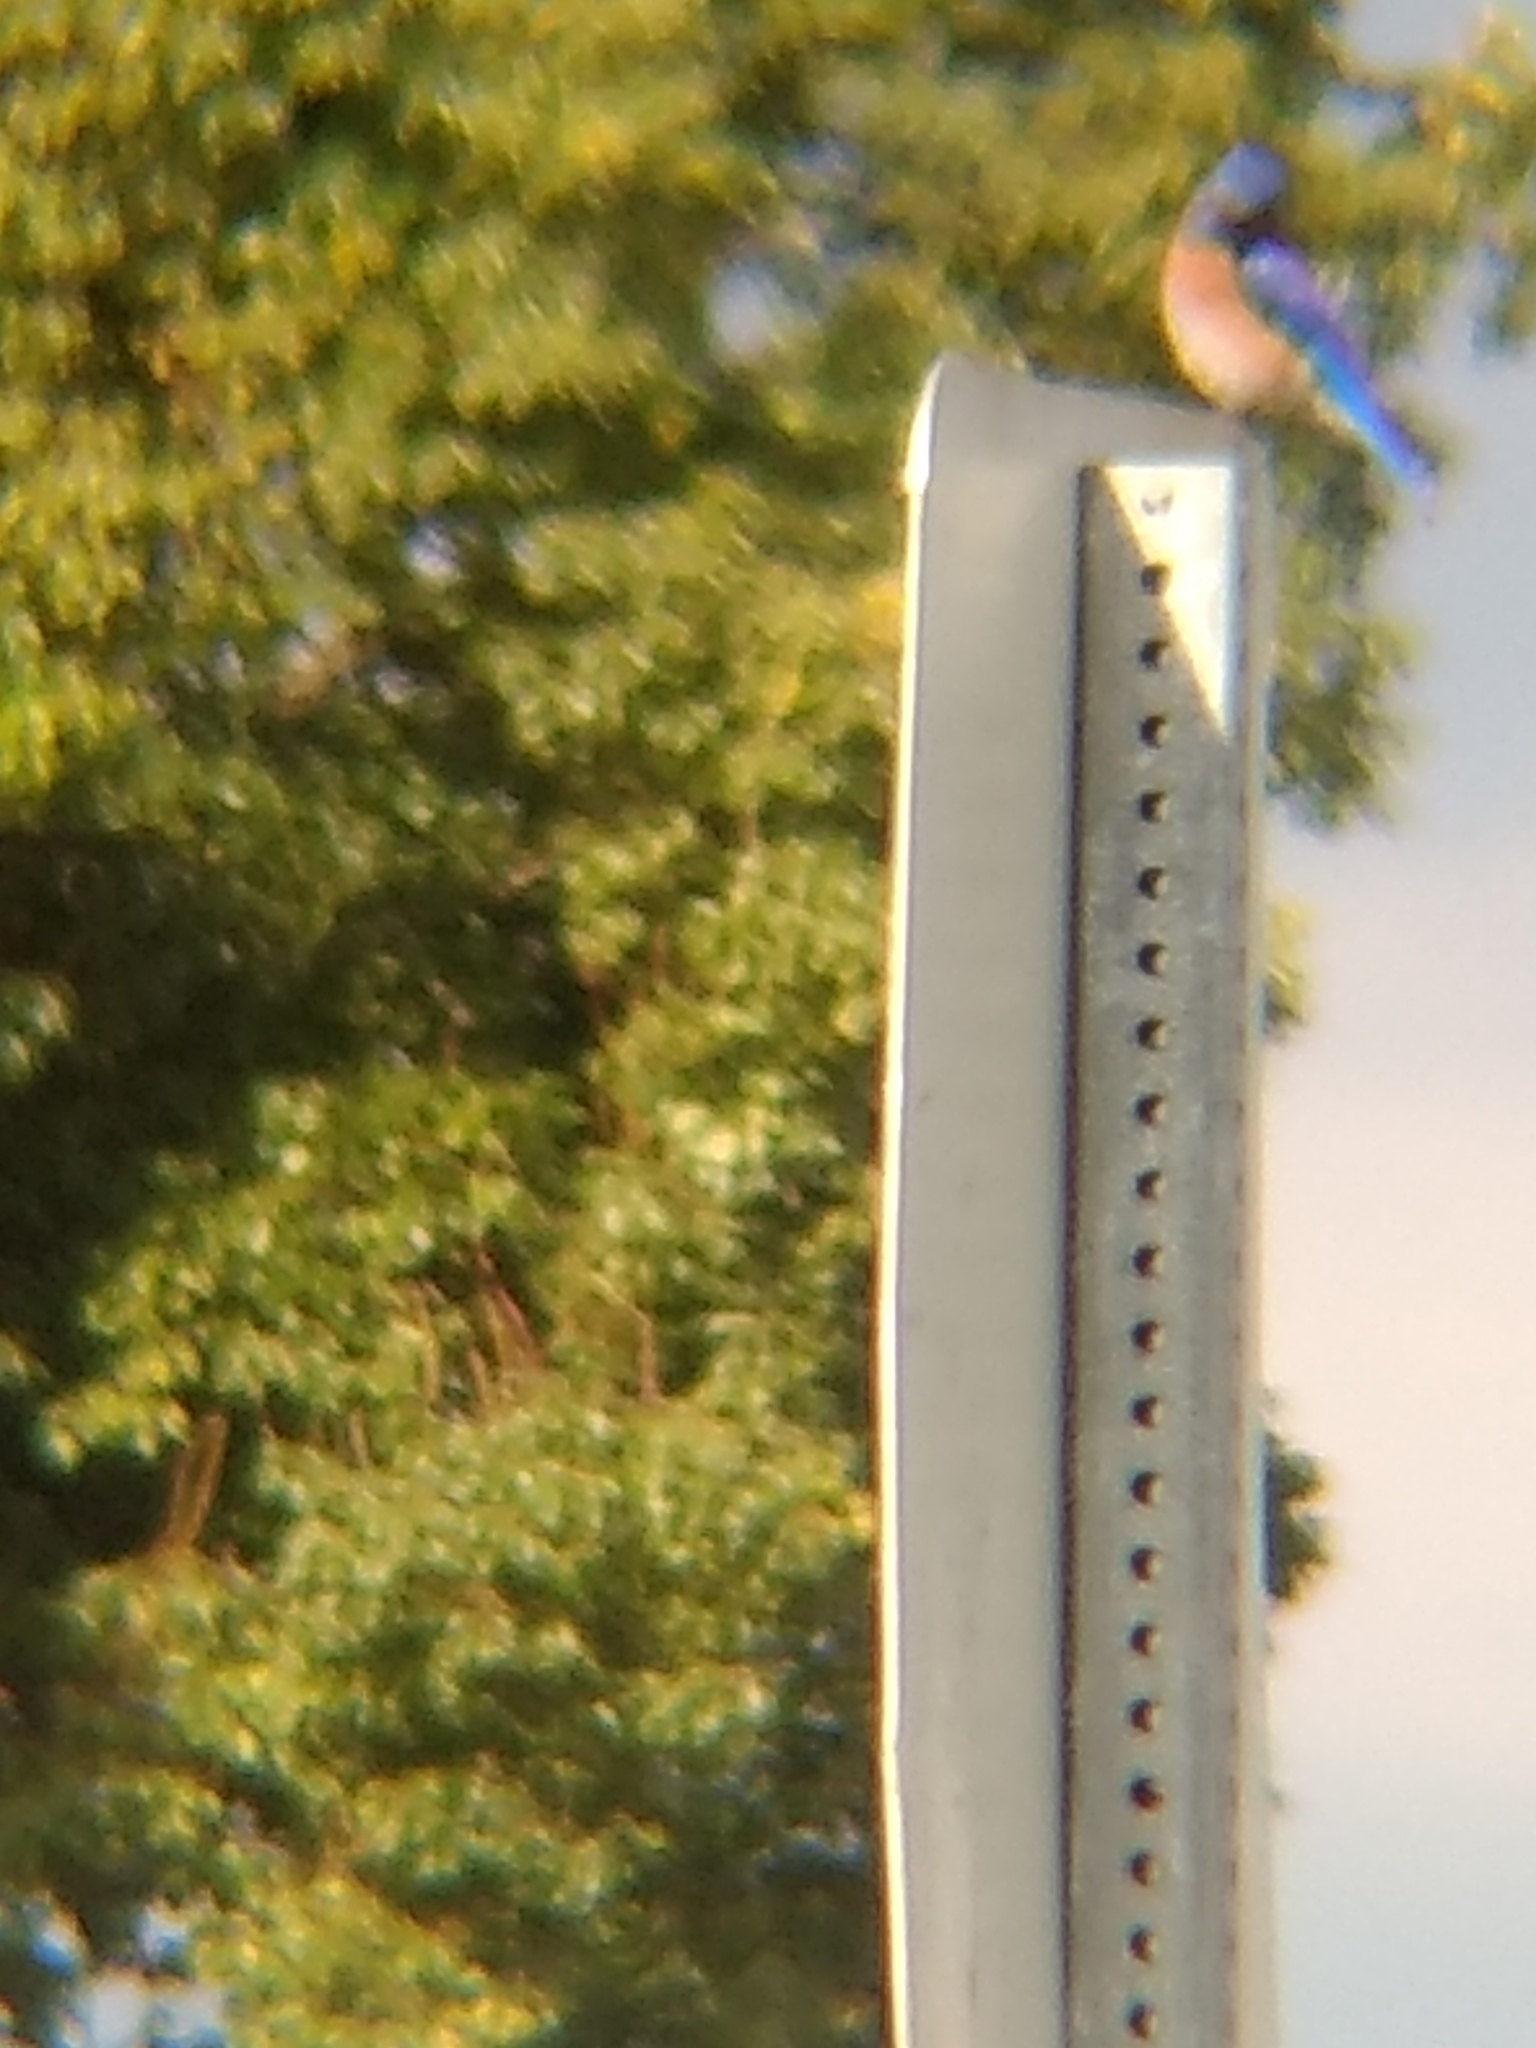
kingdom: Animalia
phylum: Chordata
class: Aves
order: Passeriformes
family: Turdidae
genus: Sialia
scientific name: Sialia mexicana
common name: Western bluebird
